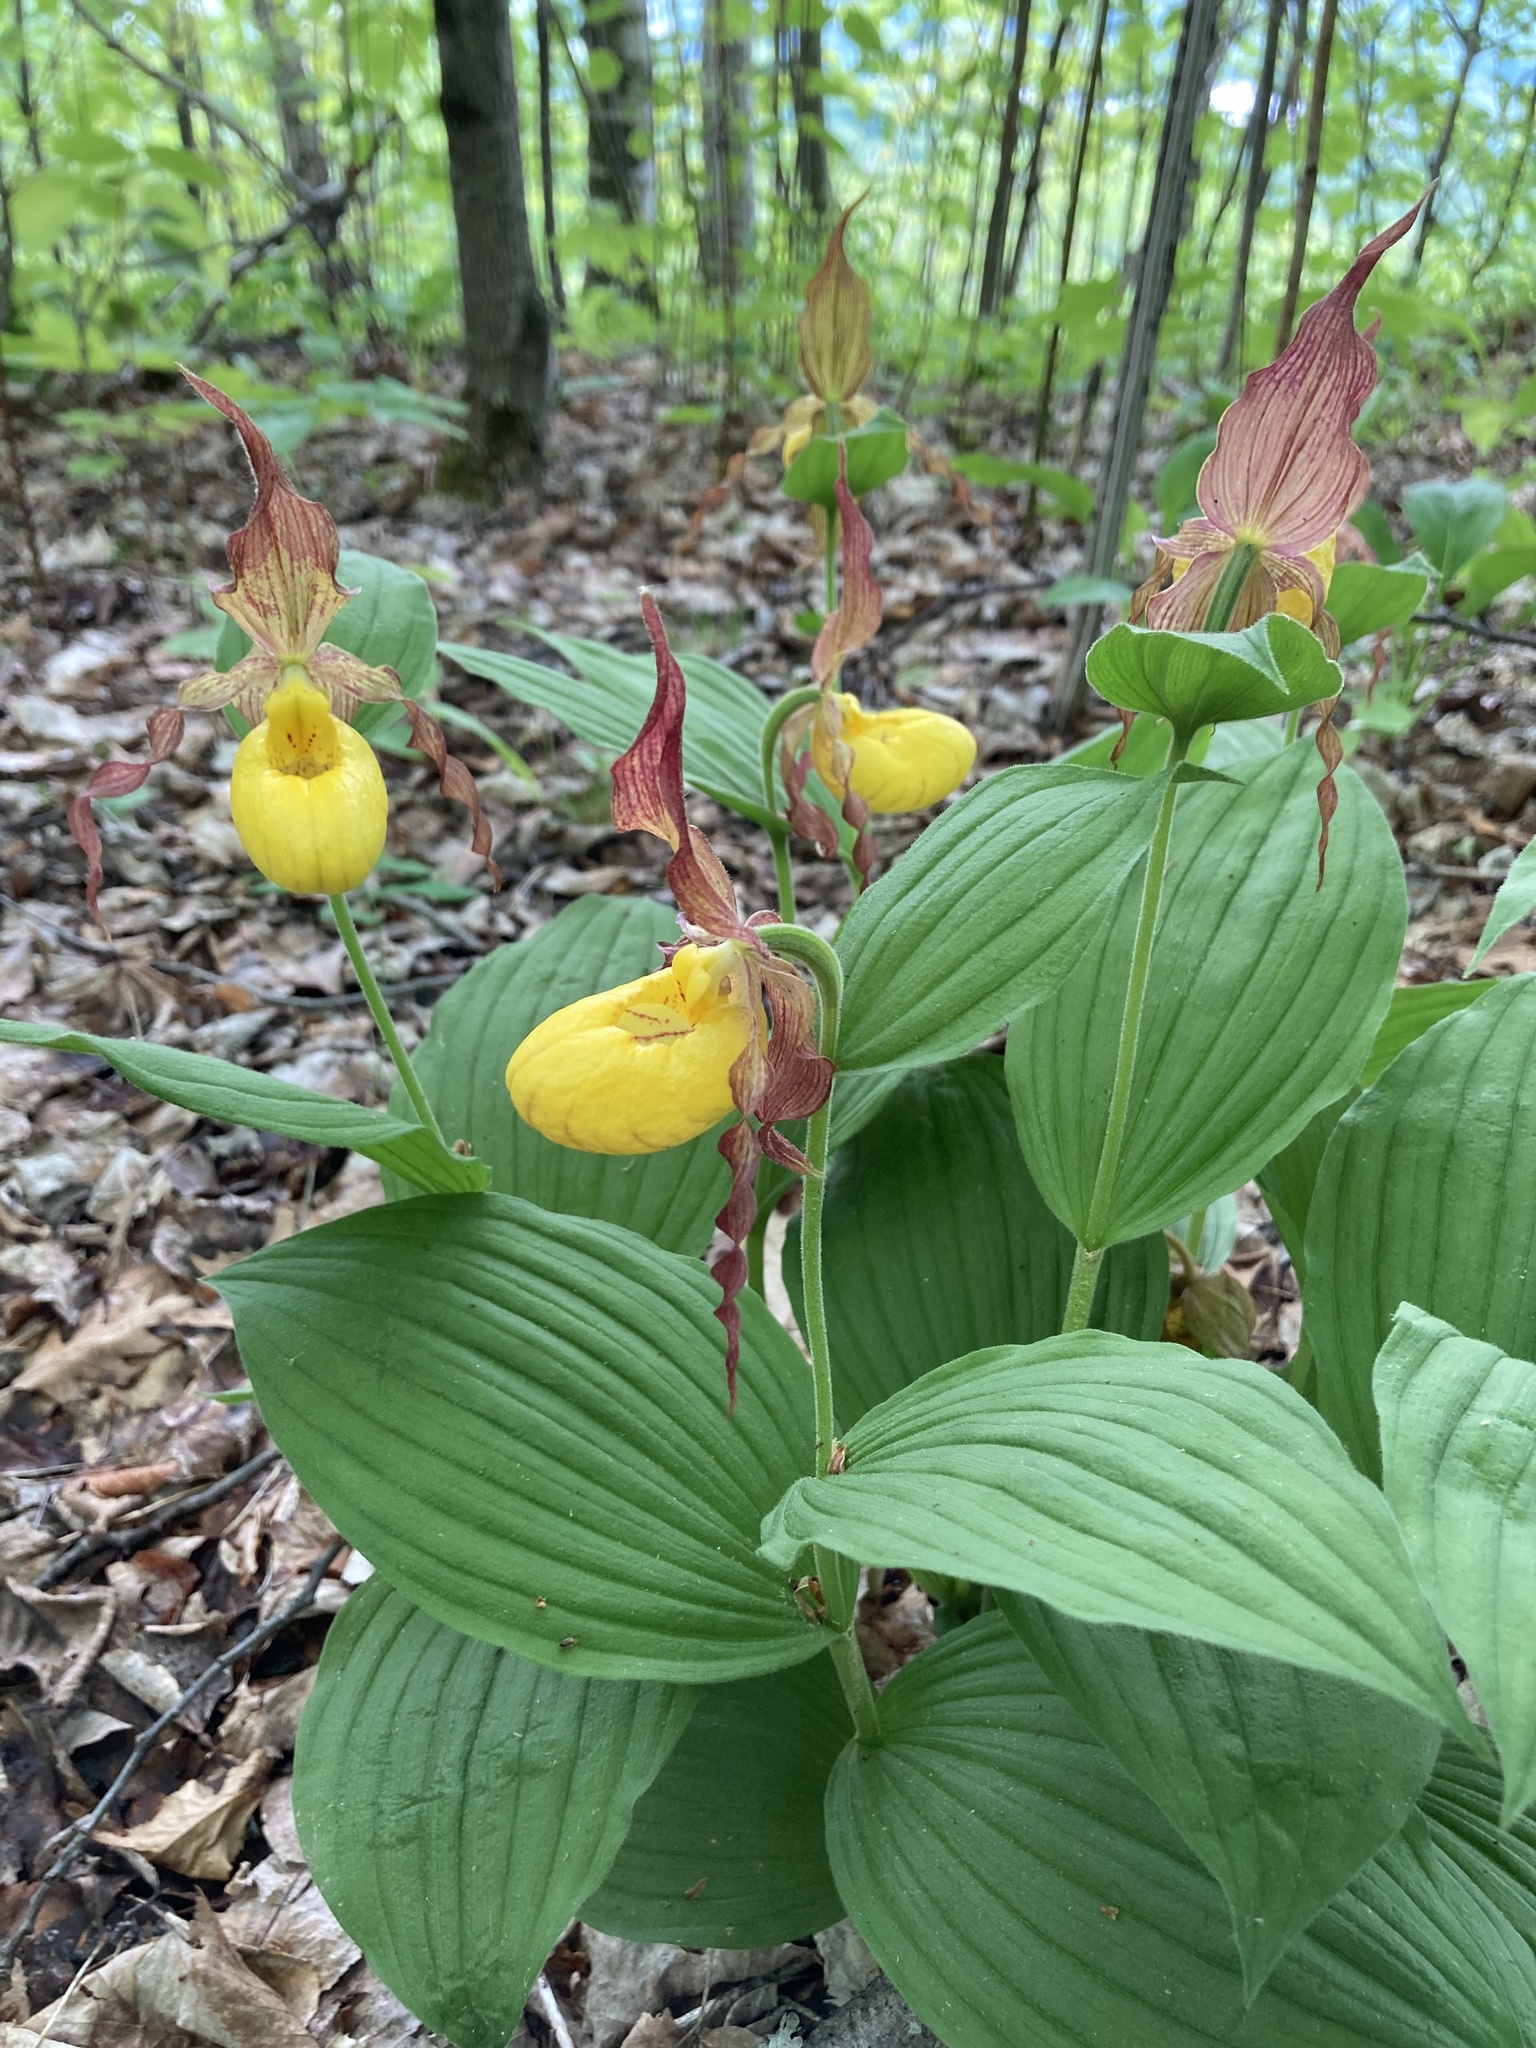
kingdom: Plantae
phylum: Tracheophyta
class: Liliopsida
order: Asparagales
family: Orchidaceae
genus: Cypripedium
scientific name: Cypripedium parviflorum
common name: American yellow lady's-slipper
